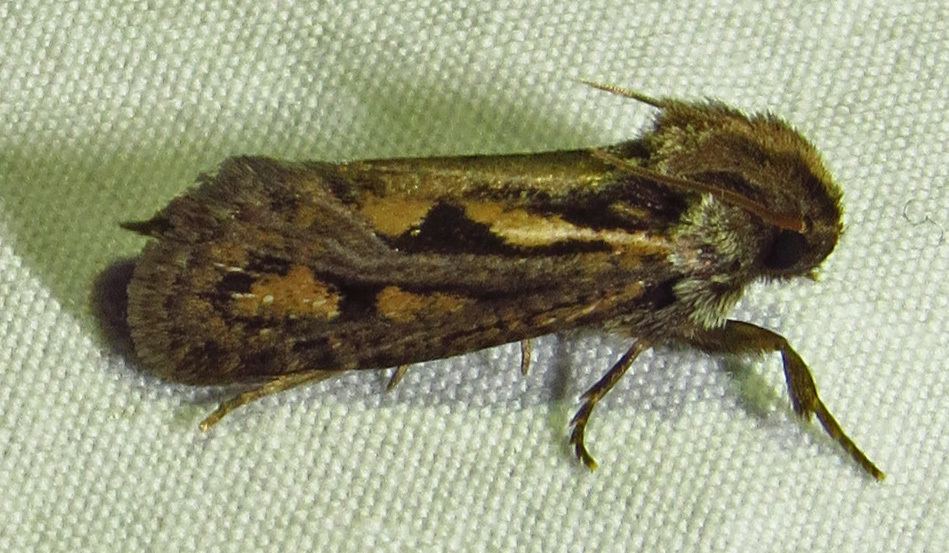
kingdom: Animalia
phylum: Arthropoda
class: Insecta
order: Lepidoptera
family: Tineidae
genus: Acrolophus
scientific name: Acrolophus popeanella
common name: Clemens' grass tubeworm moth
